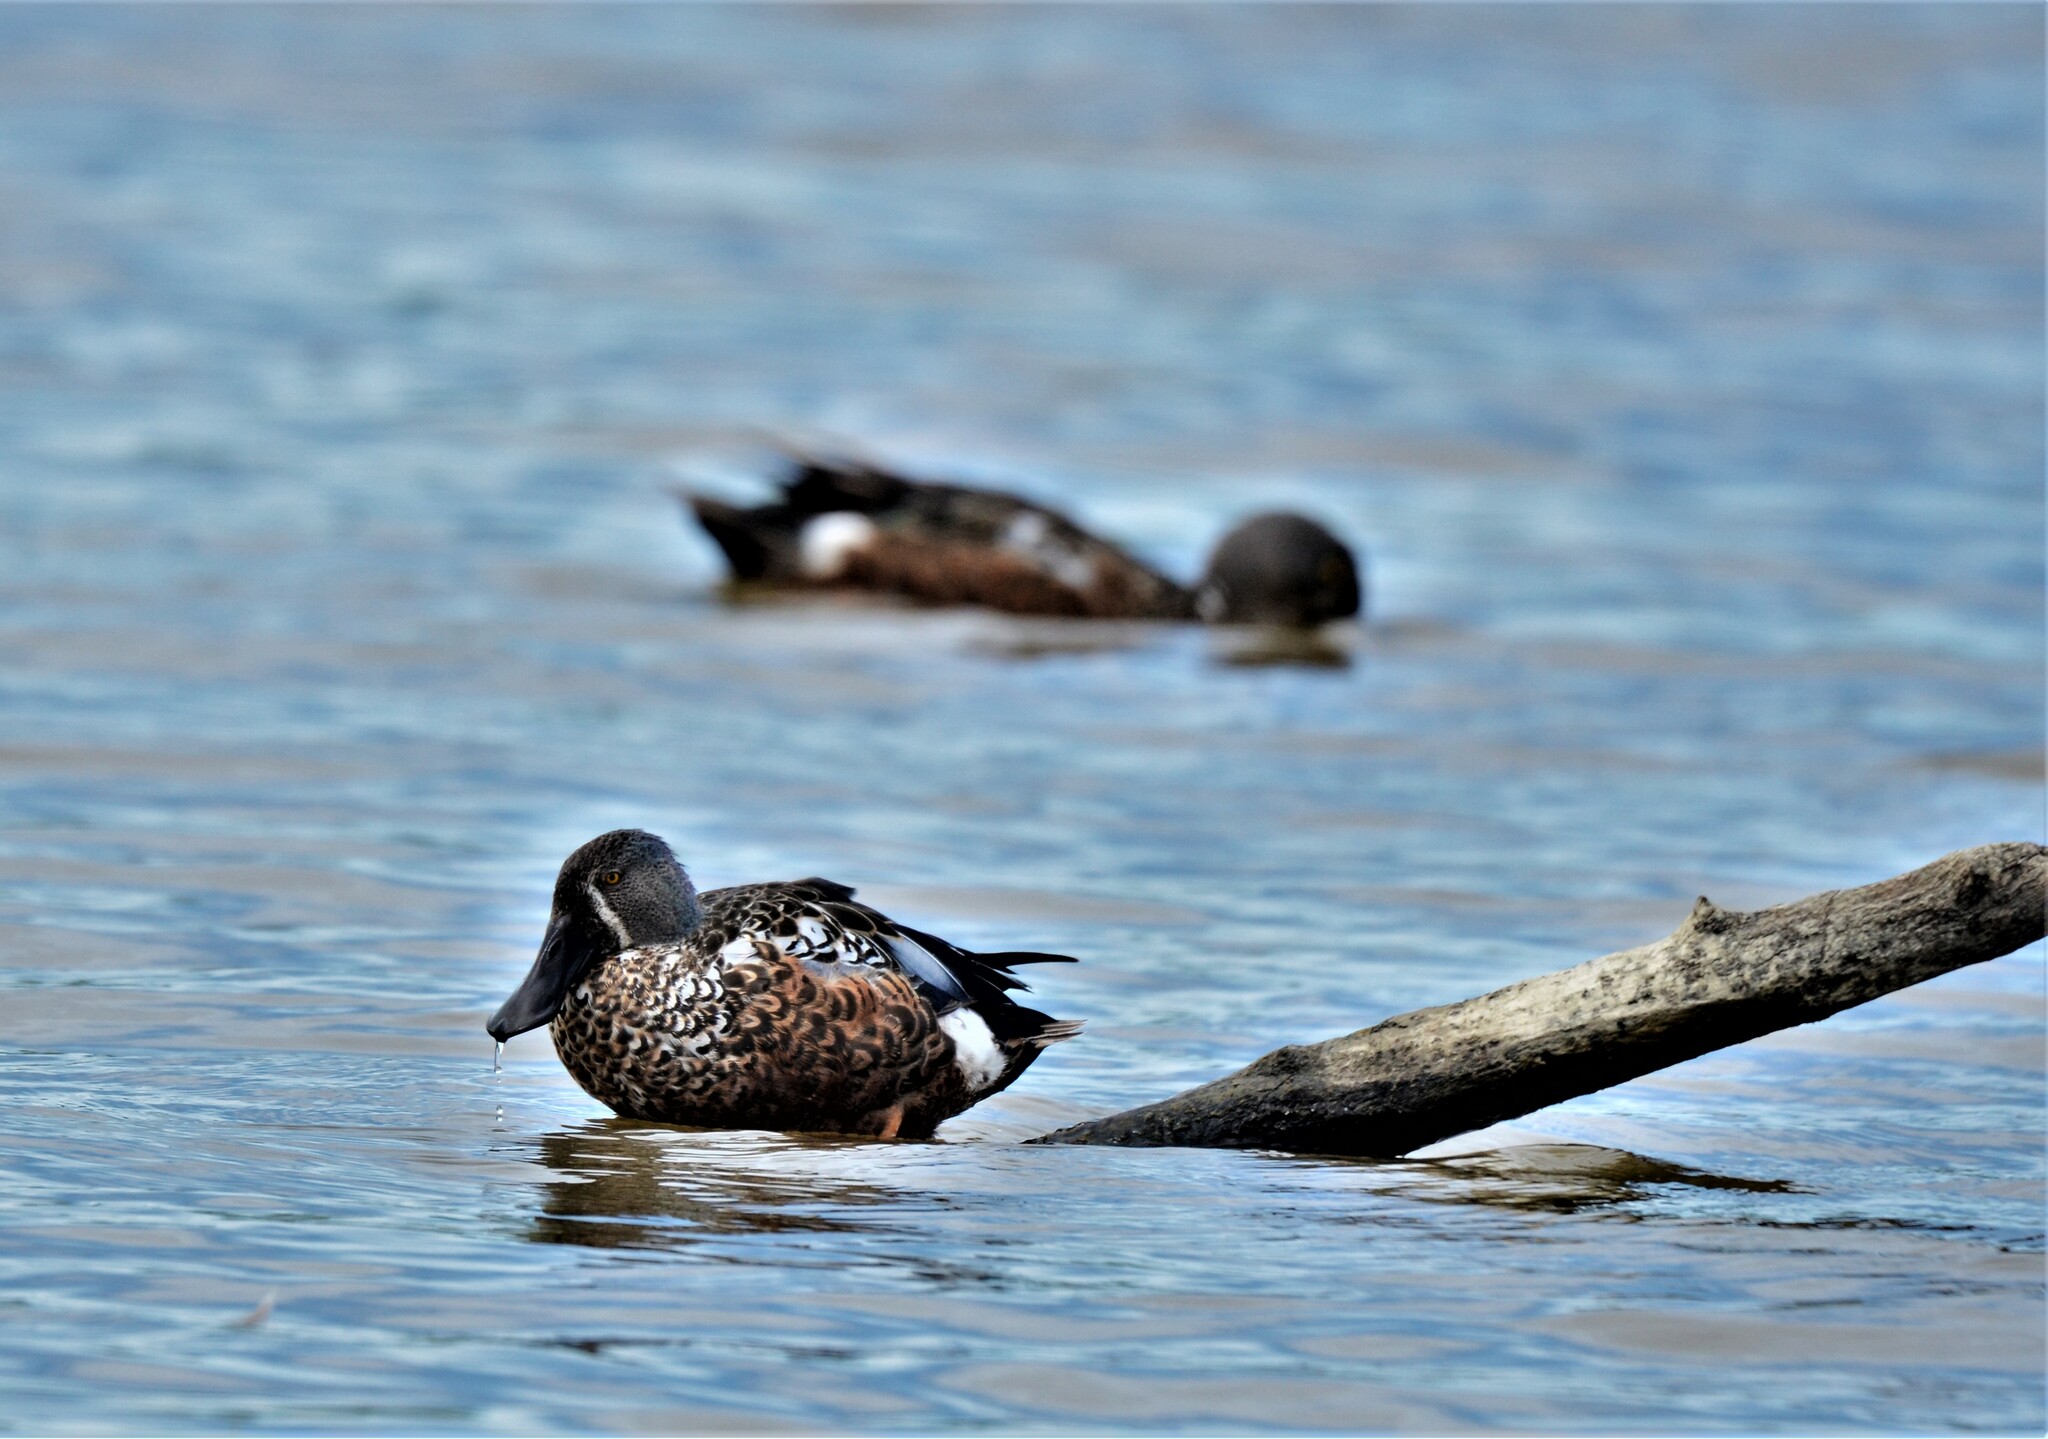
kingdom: Animalia
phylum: Chordata
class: Aves
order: Anseriformes
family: Anatidae
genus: Spatula
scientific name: Spatula rhynchotis
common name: Australian shoveler
